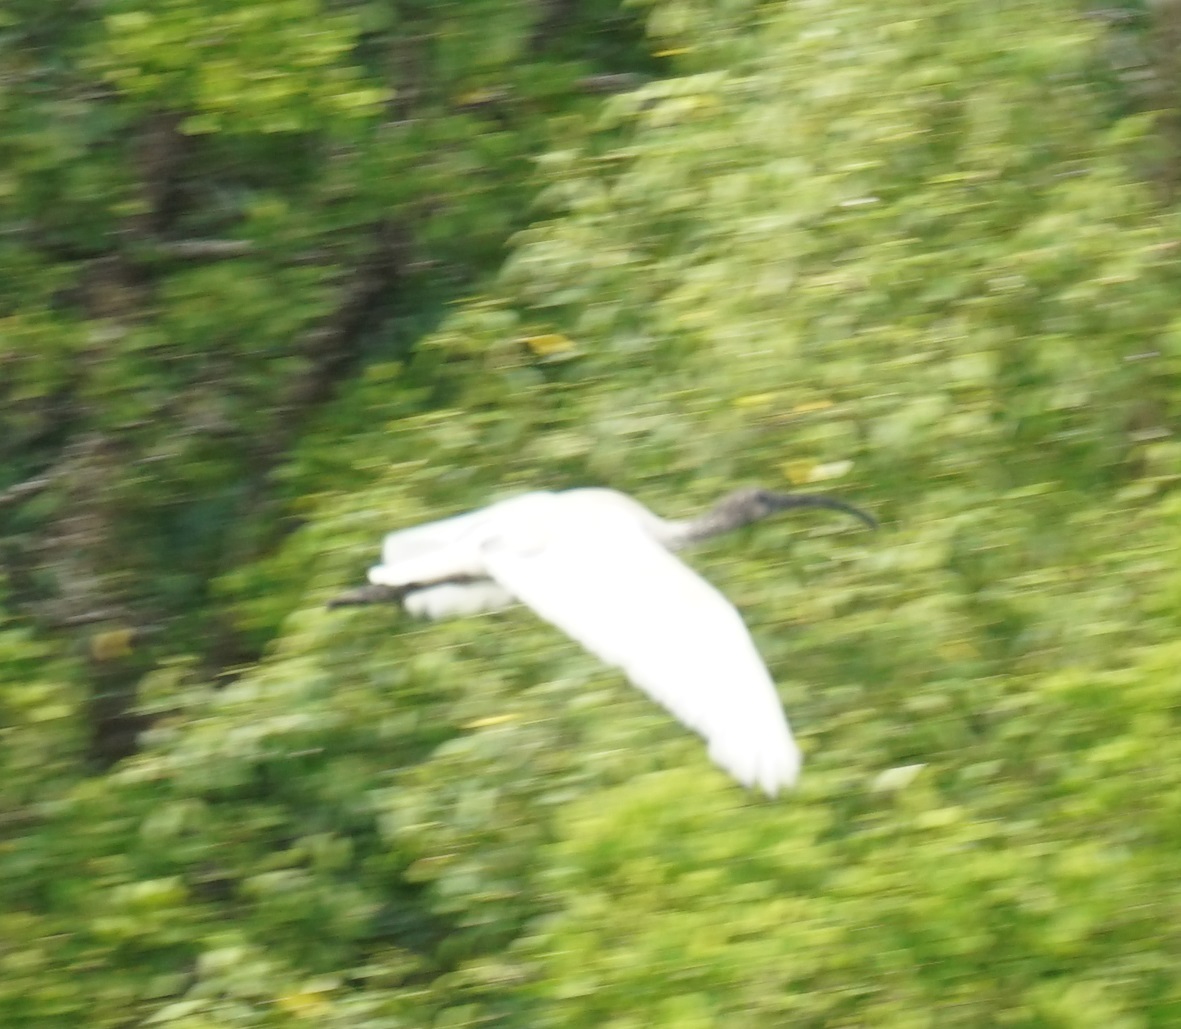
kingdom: Animalia
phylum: Chordata
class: Aves
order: Pelecaniformes
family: Threskiornithidae
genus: Threskiornis
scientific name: Threskiornis molucca
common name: Australian white ibis
